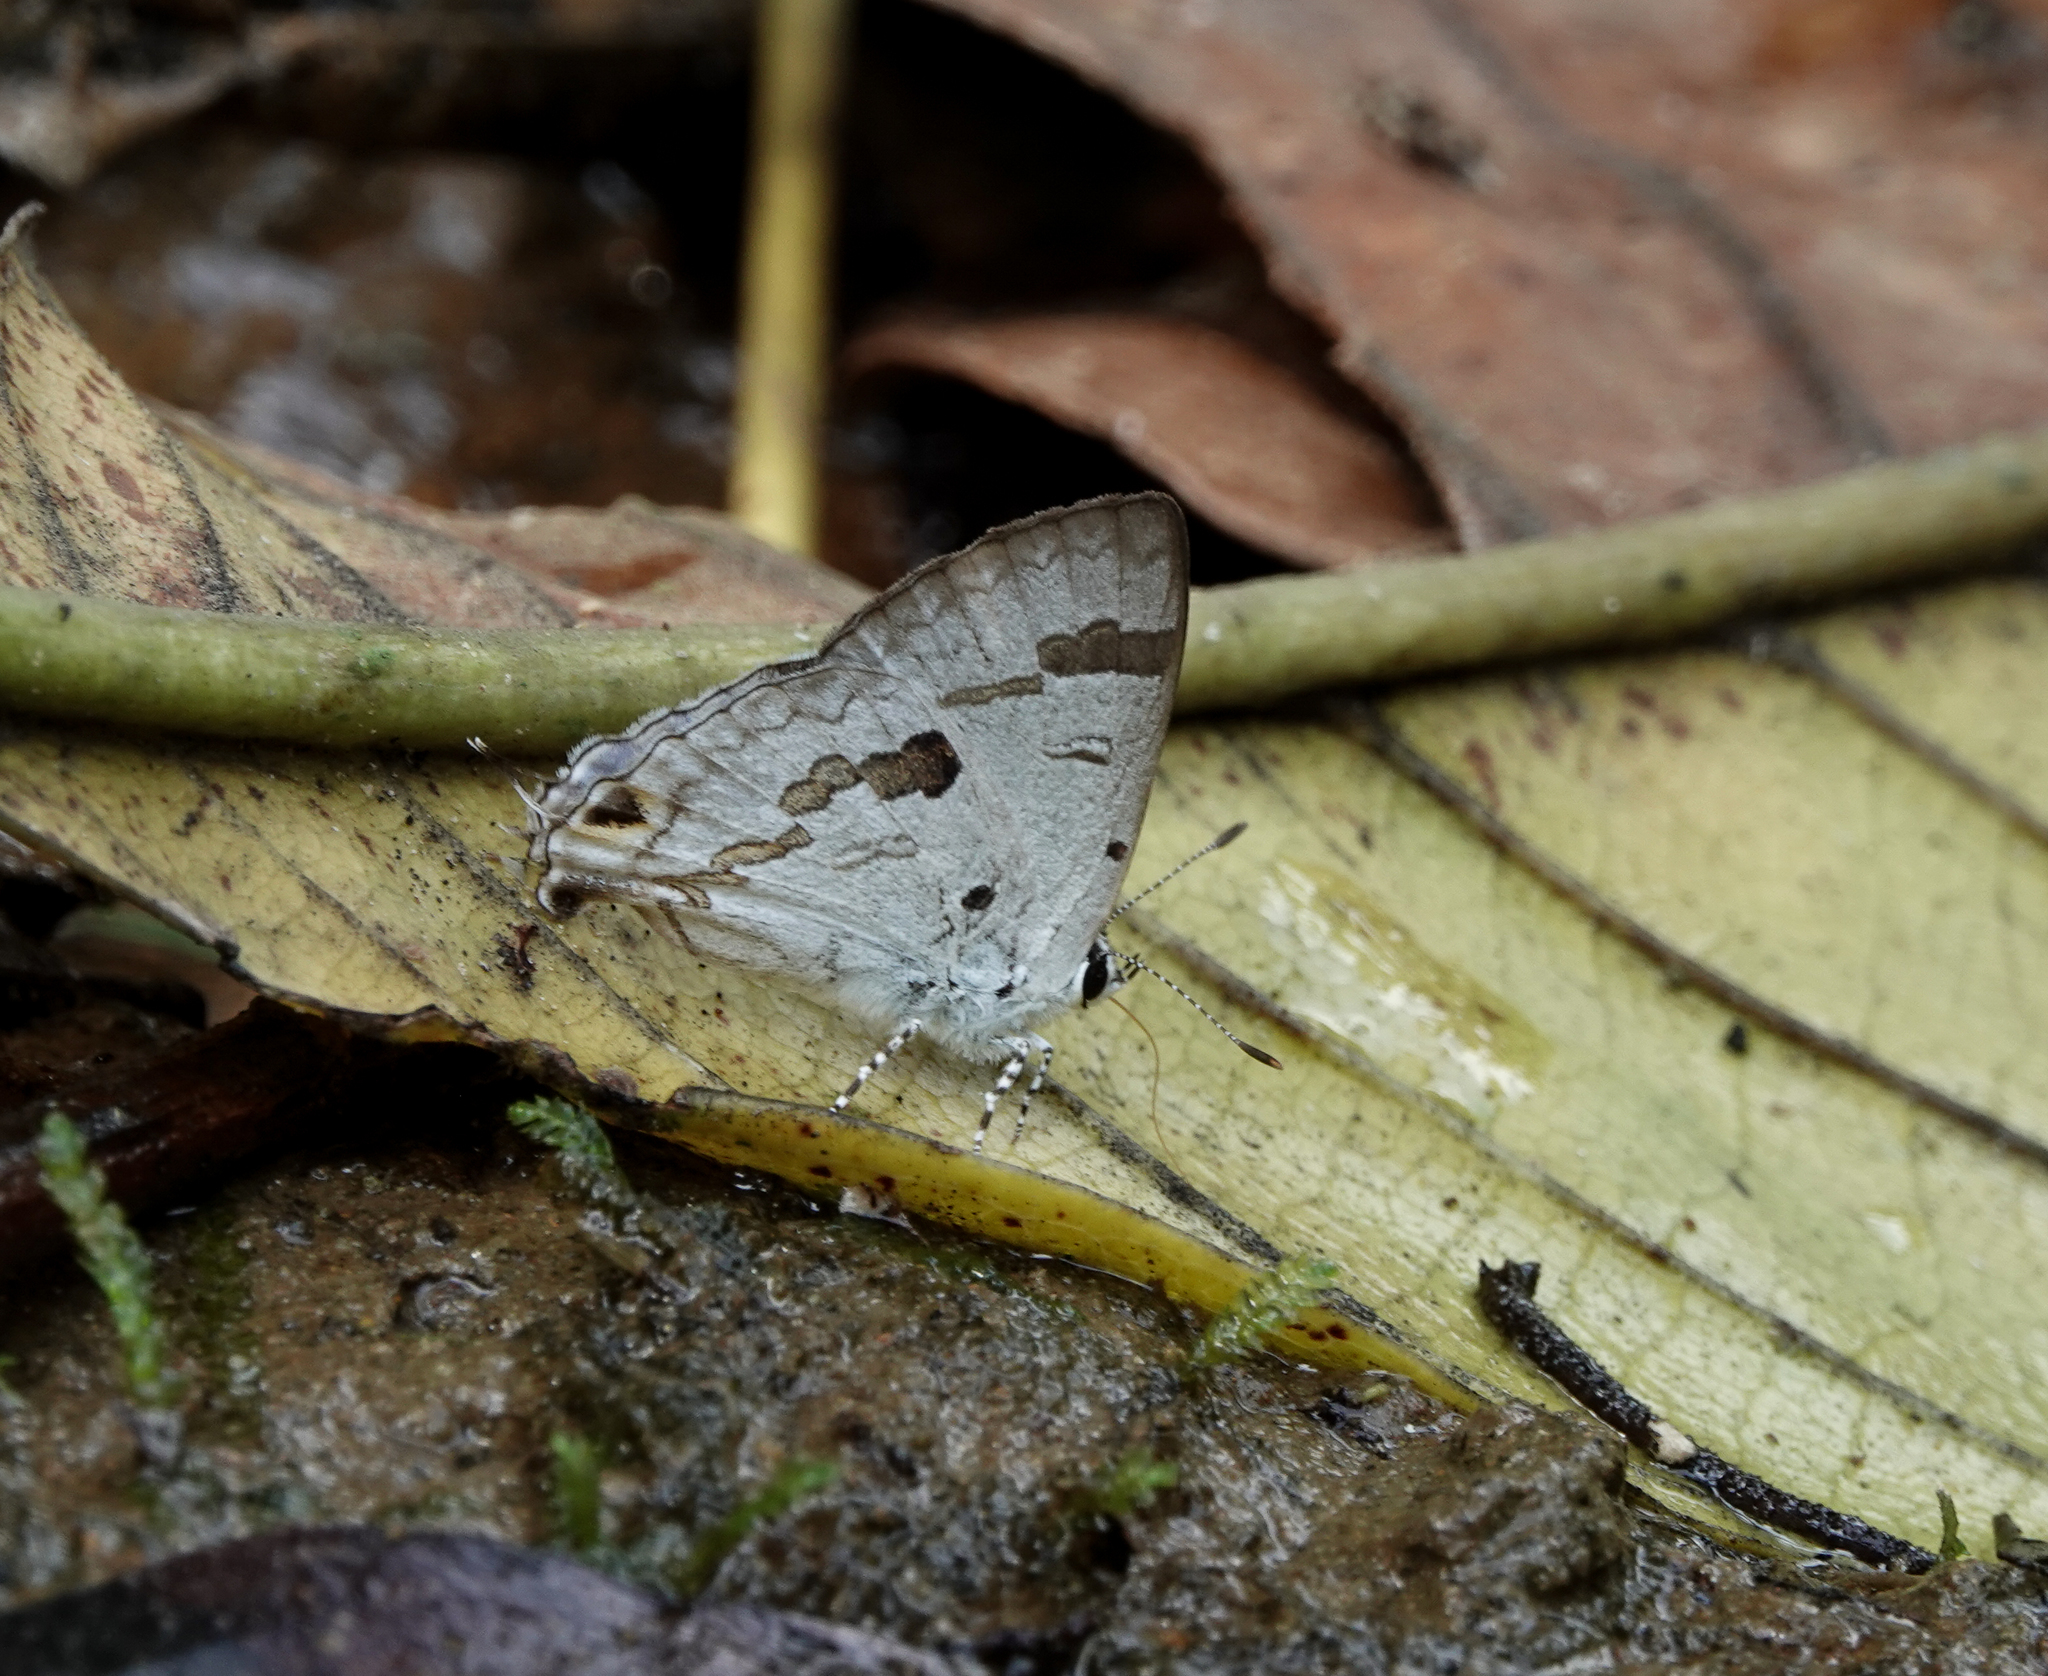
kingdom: Animalia
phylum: Arthropoda
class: Insecta
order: Lepidoptera
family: Lycaenidae
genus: Chliaria
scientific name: Chliaria othona
